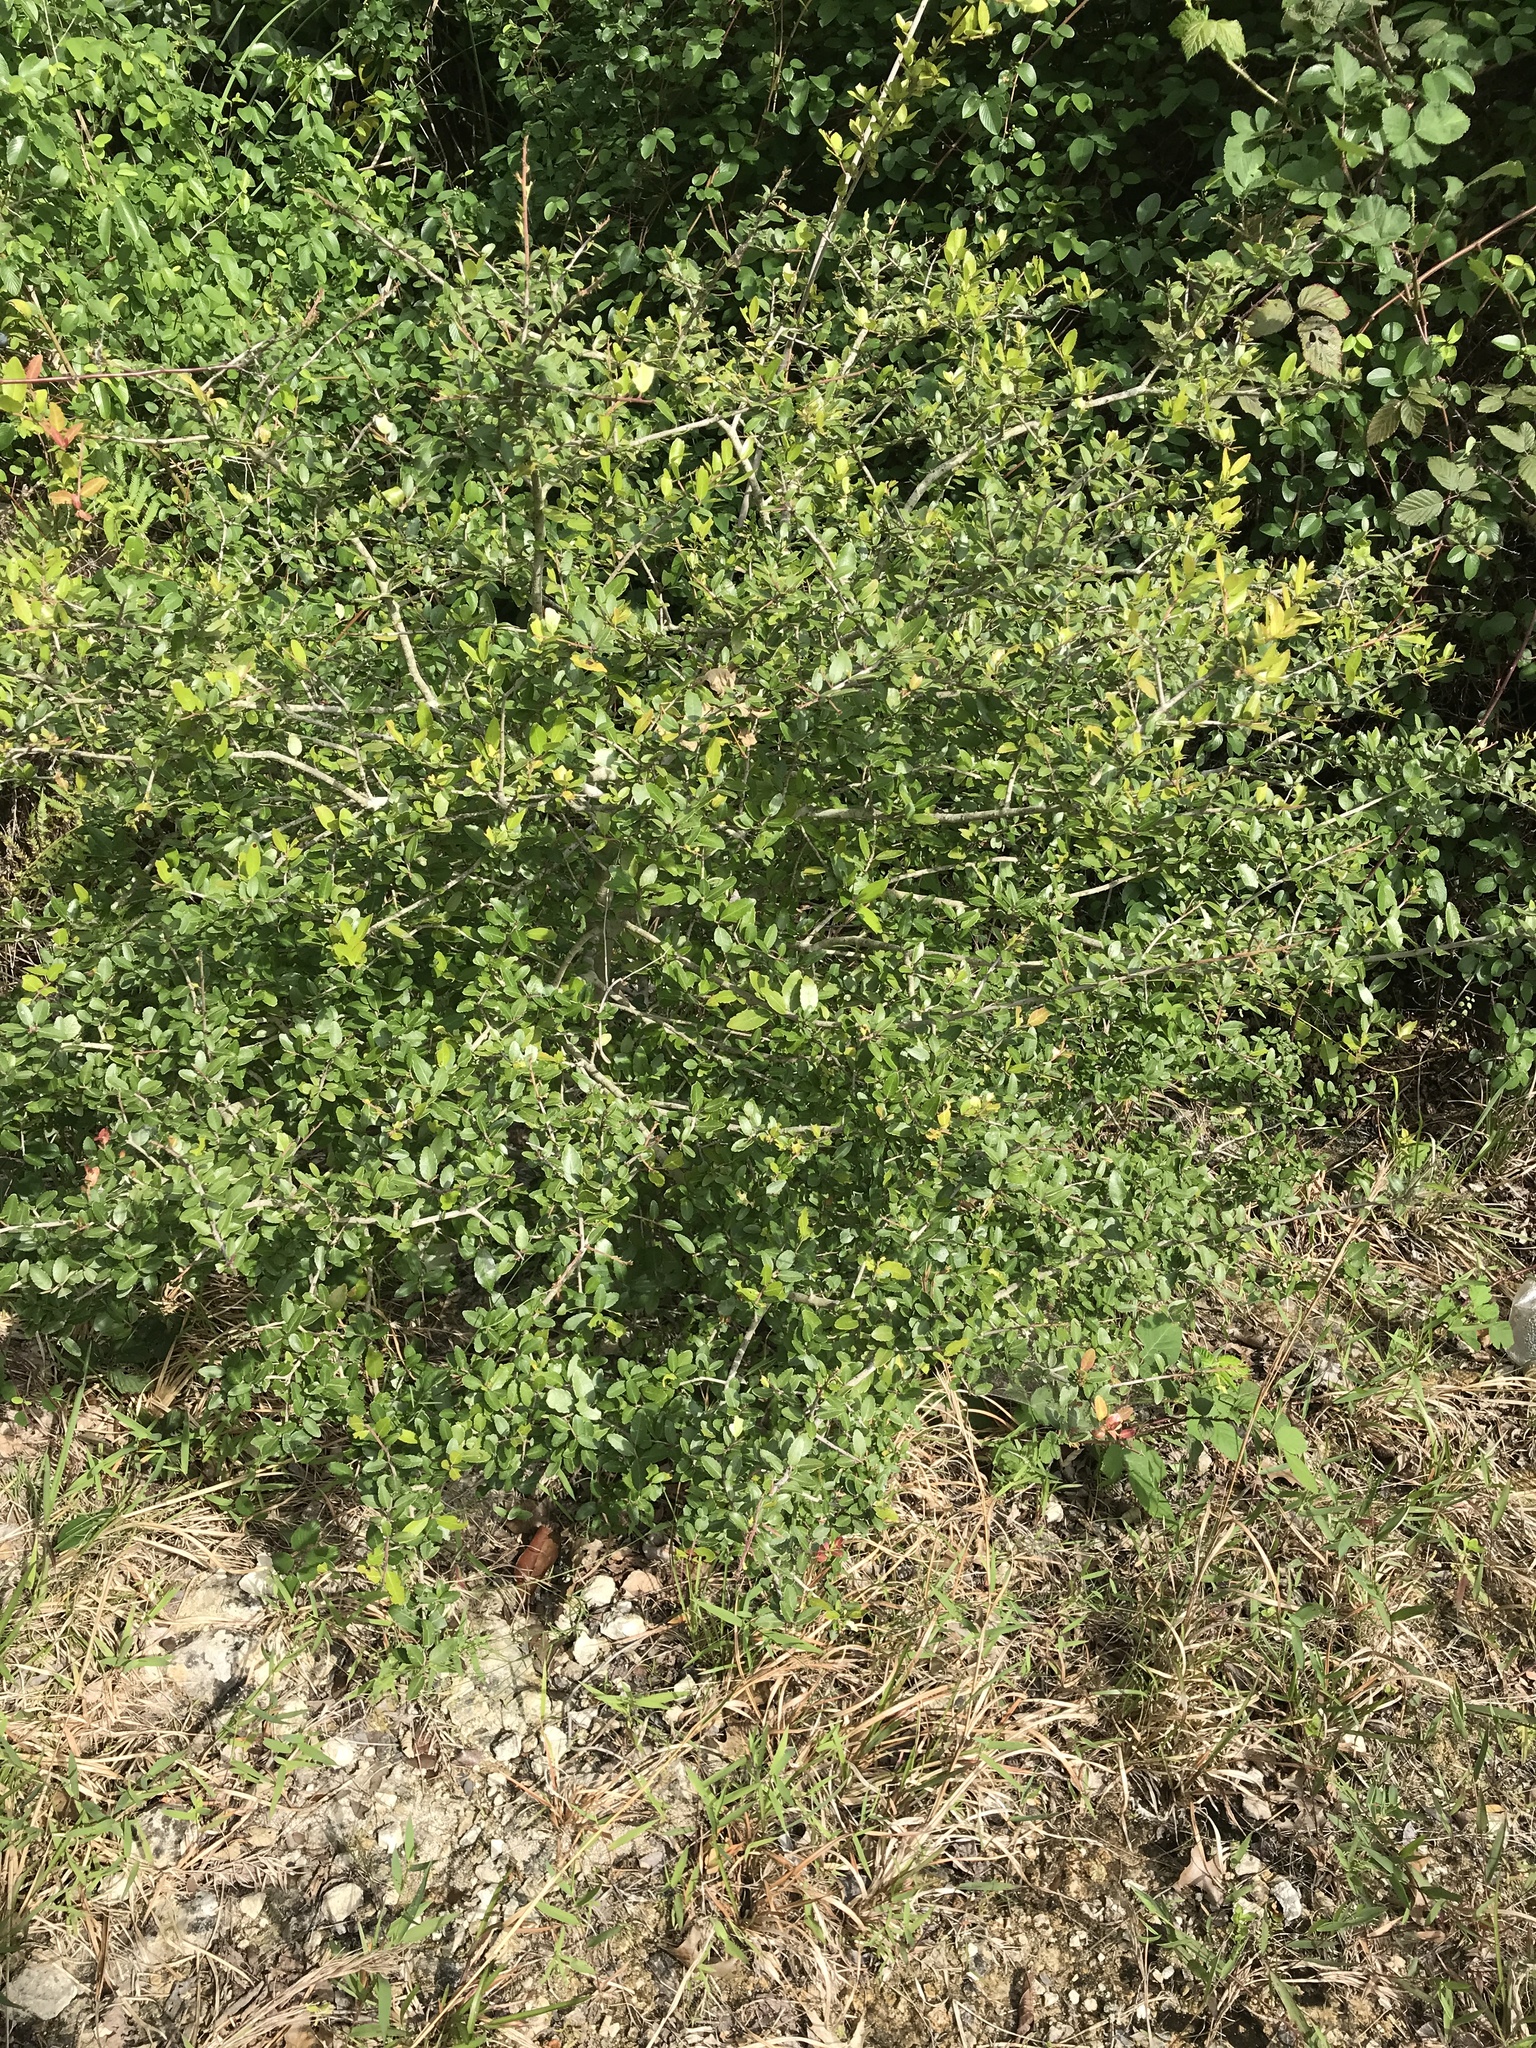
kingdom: Plantae
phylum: Tracheophyta
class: Magnoliopsida
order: Aquifoliales
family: Aquifoliaceae
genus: Ilex
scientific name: Ilex vomitoria
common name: Yaupon holly
